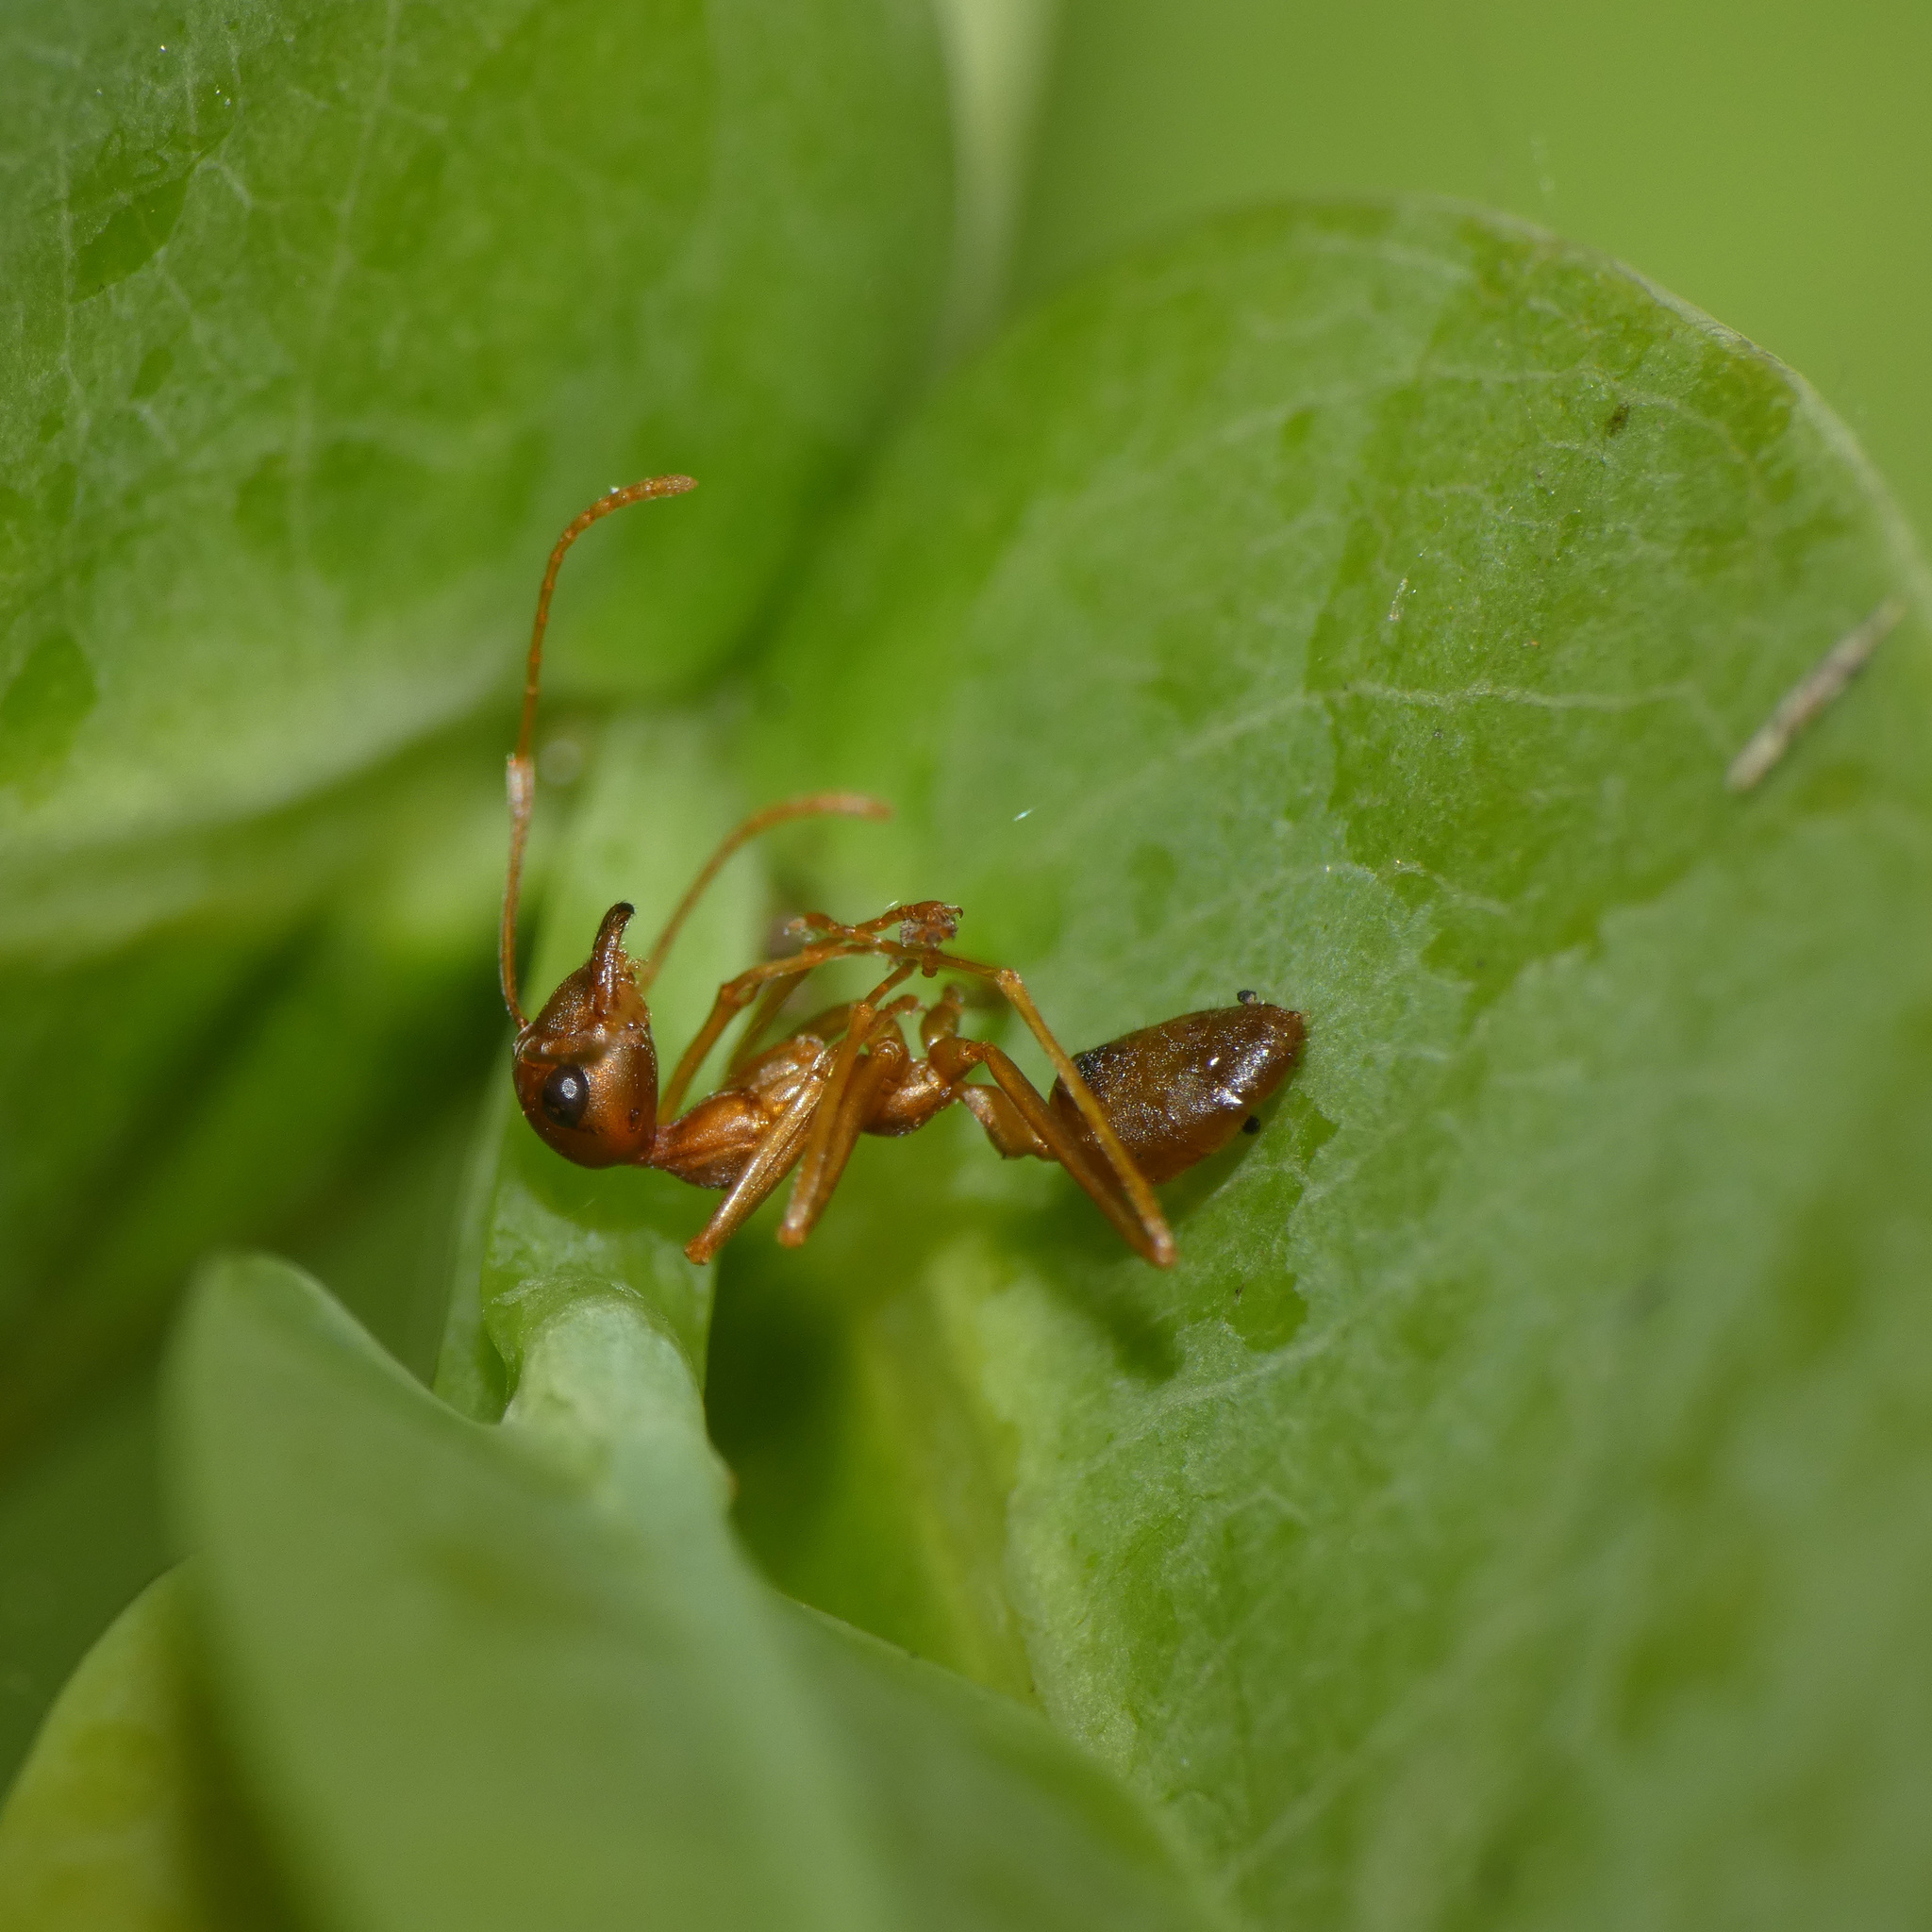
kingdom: Animalia
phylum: Arthropoda
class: Insecta
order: Hymenoptera
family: Formicidae
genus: Oecophylla
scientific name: Oecophylla longinoda
